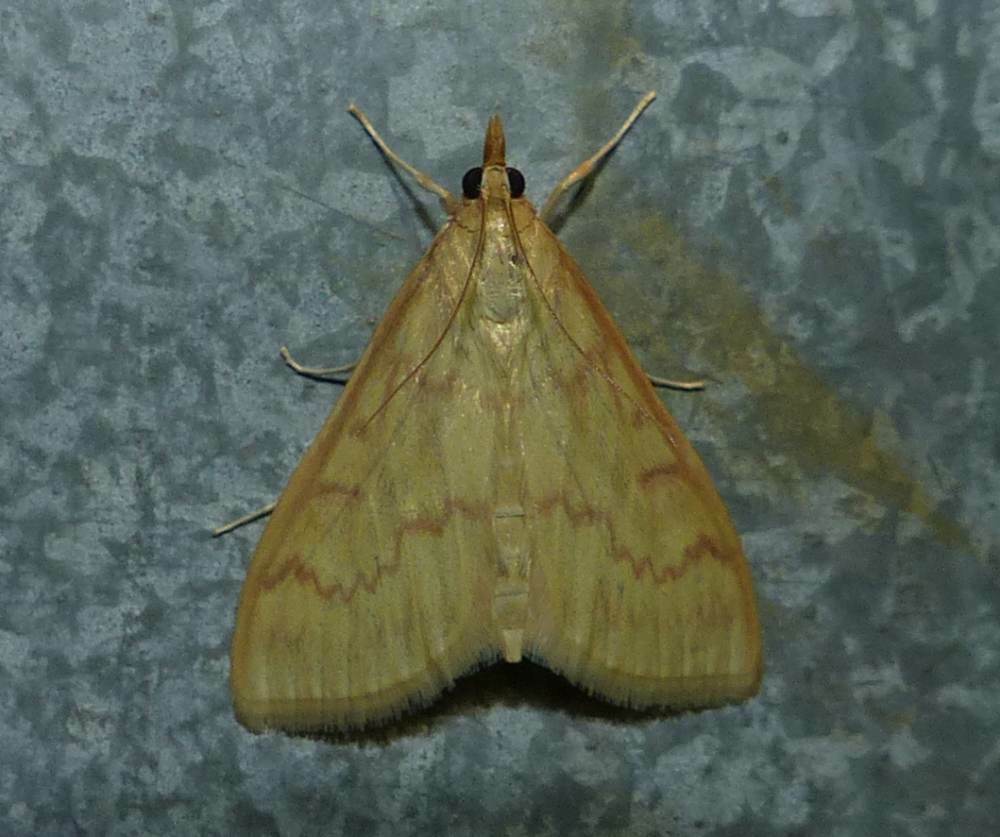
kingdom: Animalia
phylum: Arthropoda
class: Insecta
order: Lepidoptera
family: Crambidae
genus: Ostrinia
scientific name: Ostrinia nubilalis
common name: European corn borer
